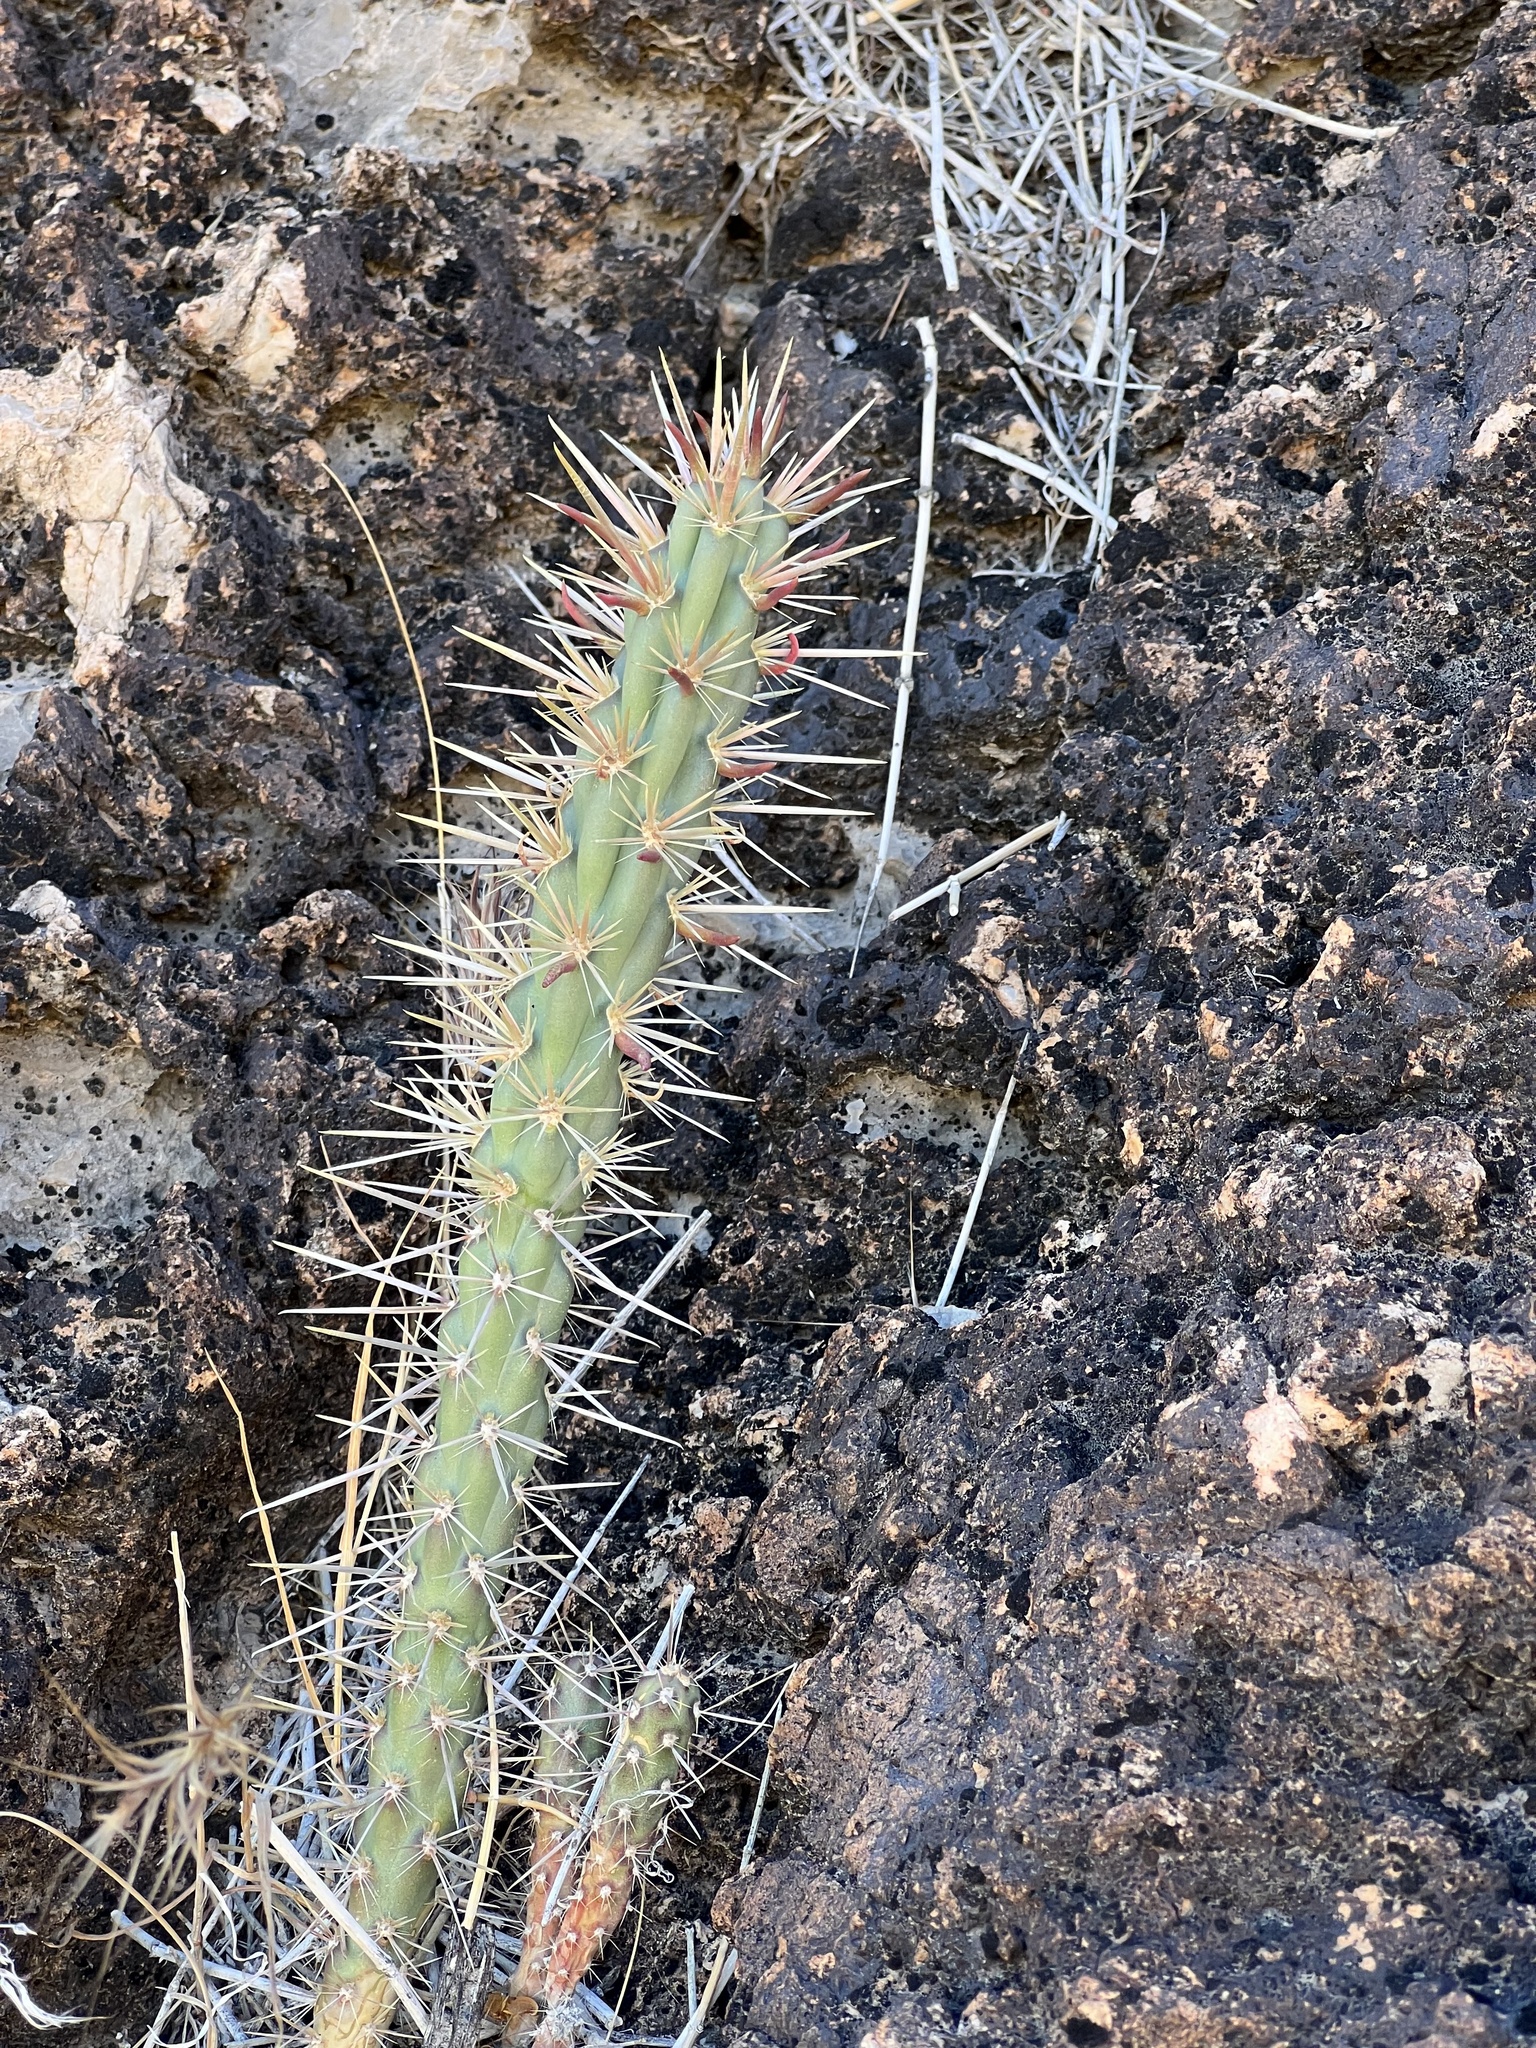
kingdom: Plantae
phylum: Tracheophyta
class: Magnoliopsida
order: Caryophyllales
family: Cactaceae
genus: Cylindropuntia
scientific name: Cylindropuntia acanthocarpa
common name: Buckhorn cholla
